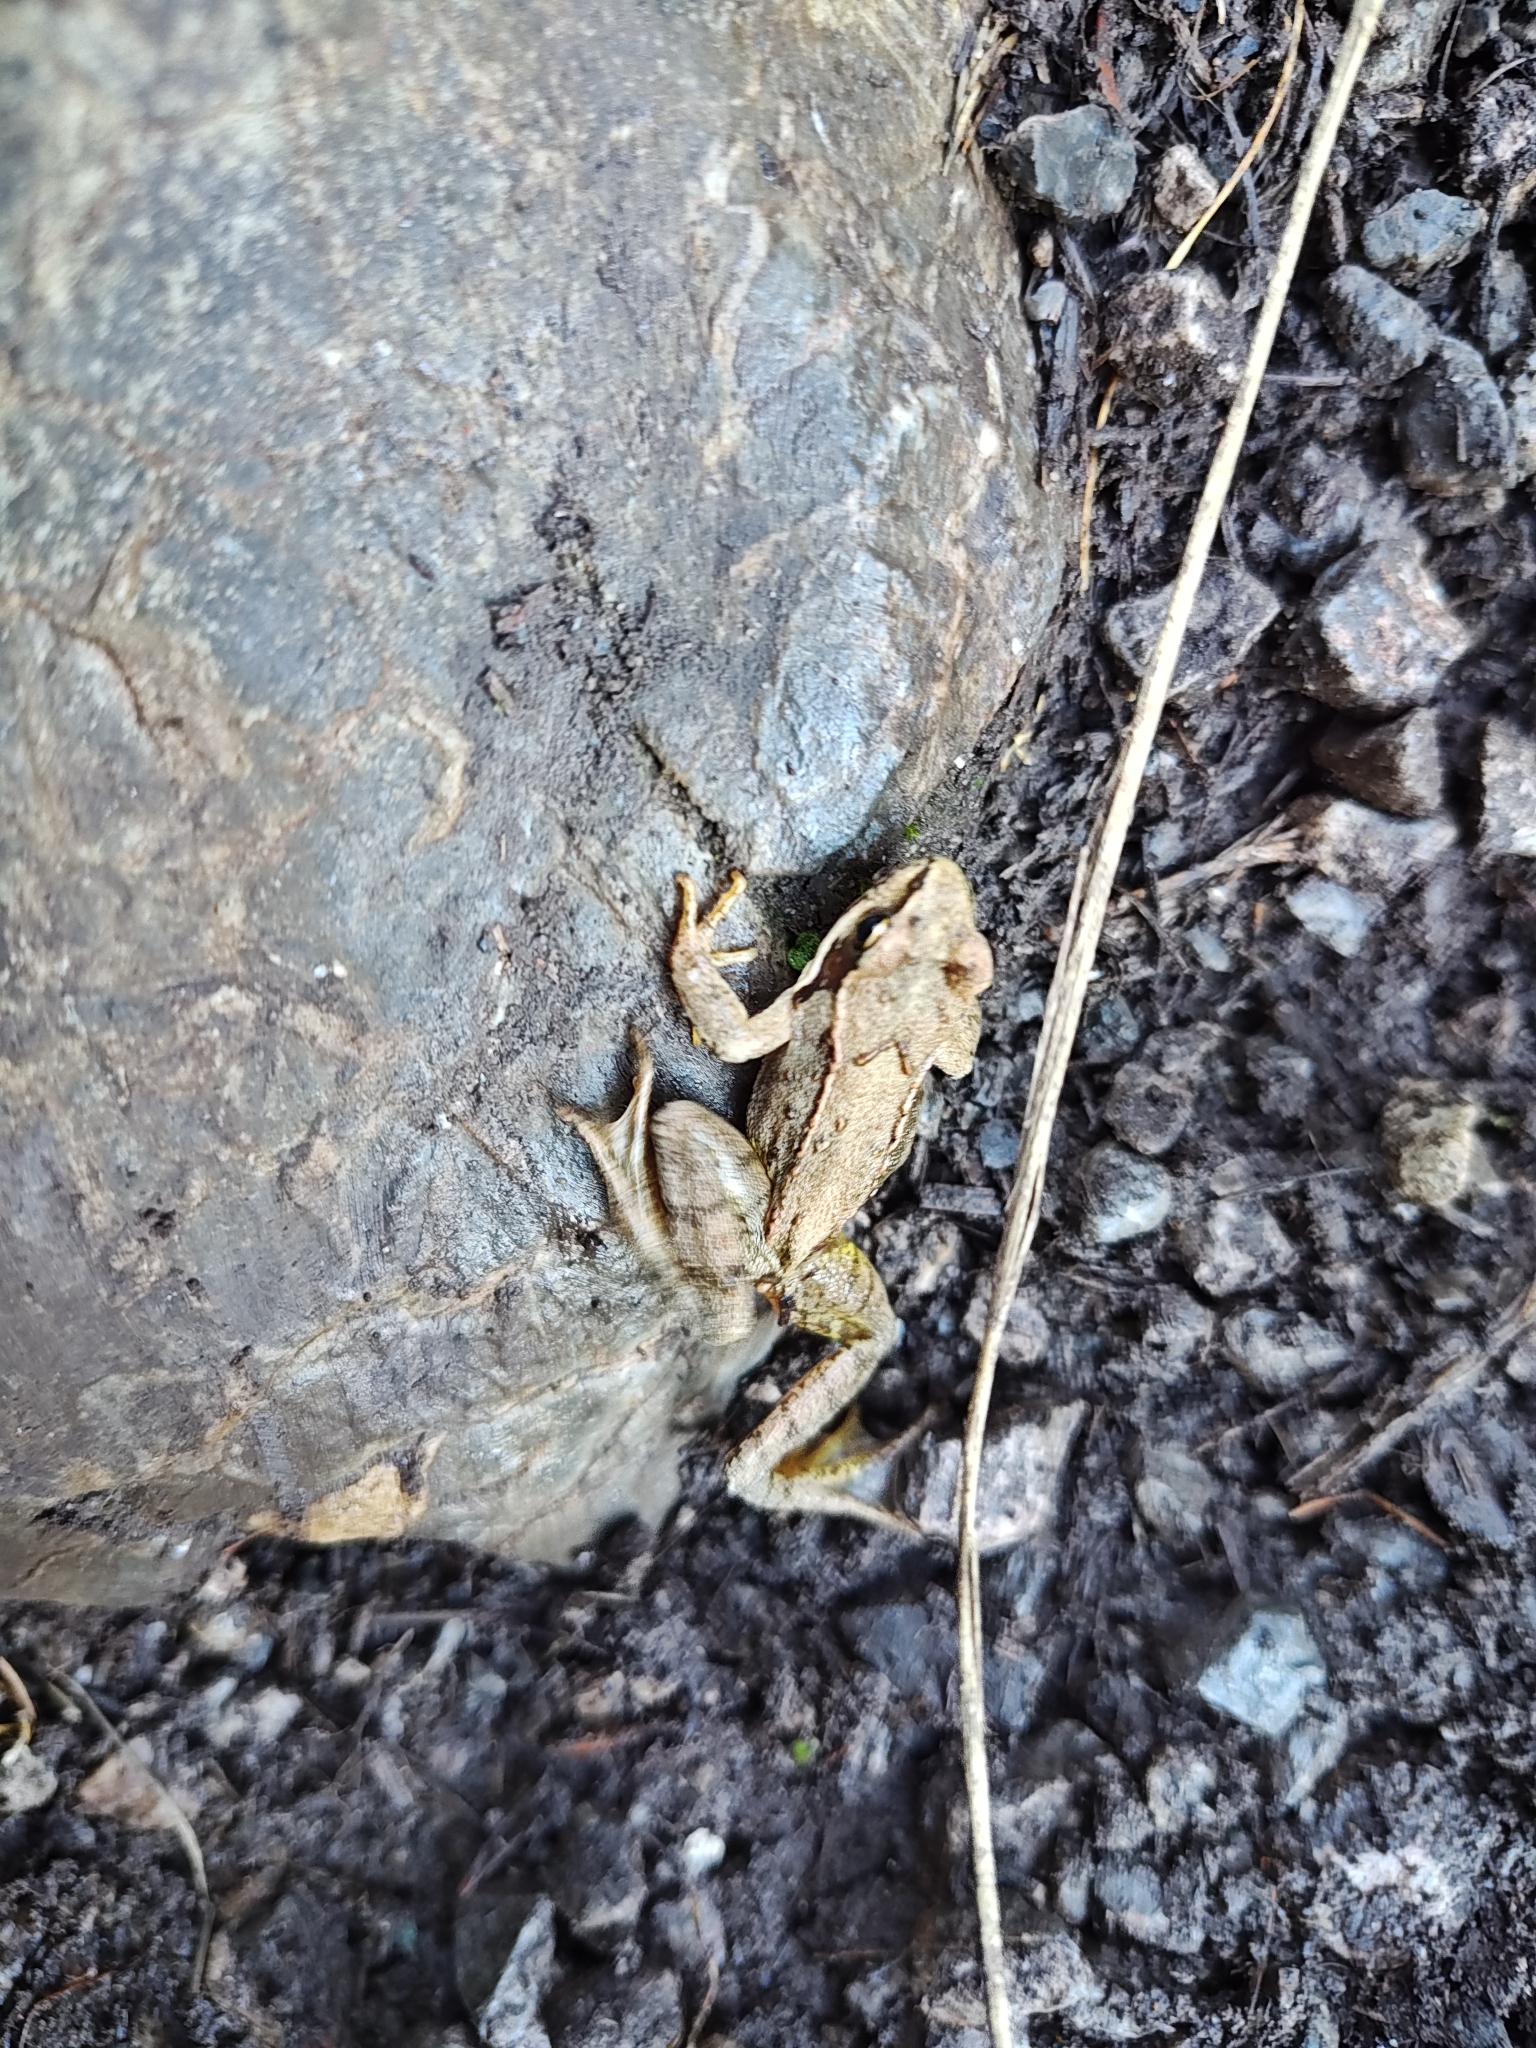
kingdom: Animalia
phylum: Chordata
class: Amphibia
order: Anura
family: Ranidae
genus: Rana
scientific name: Rana temporaria
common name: Common frog
